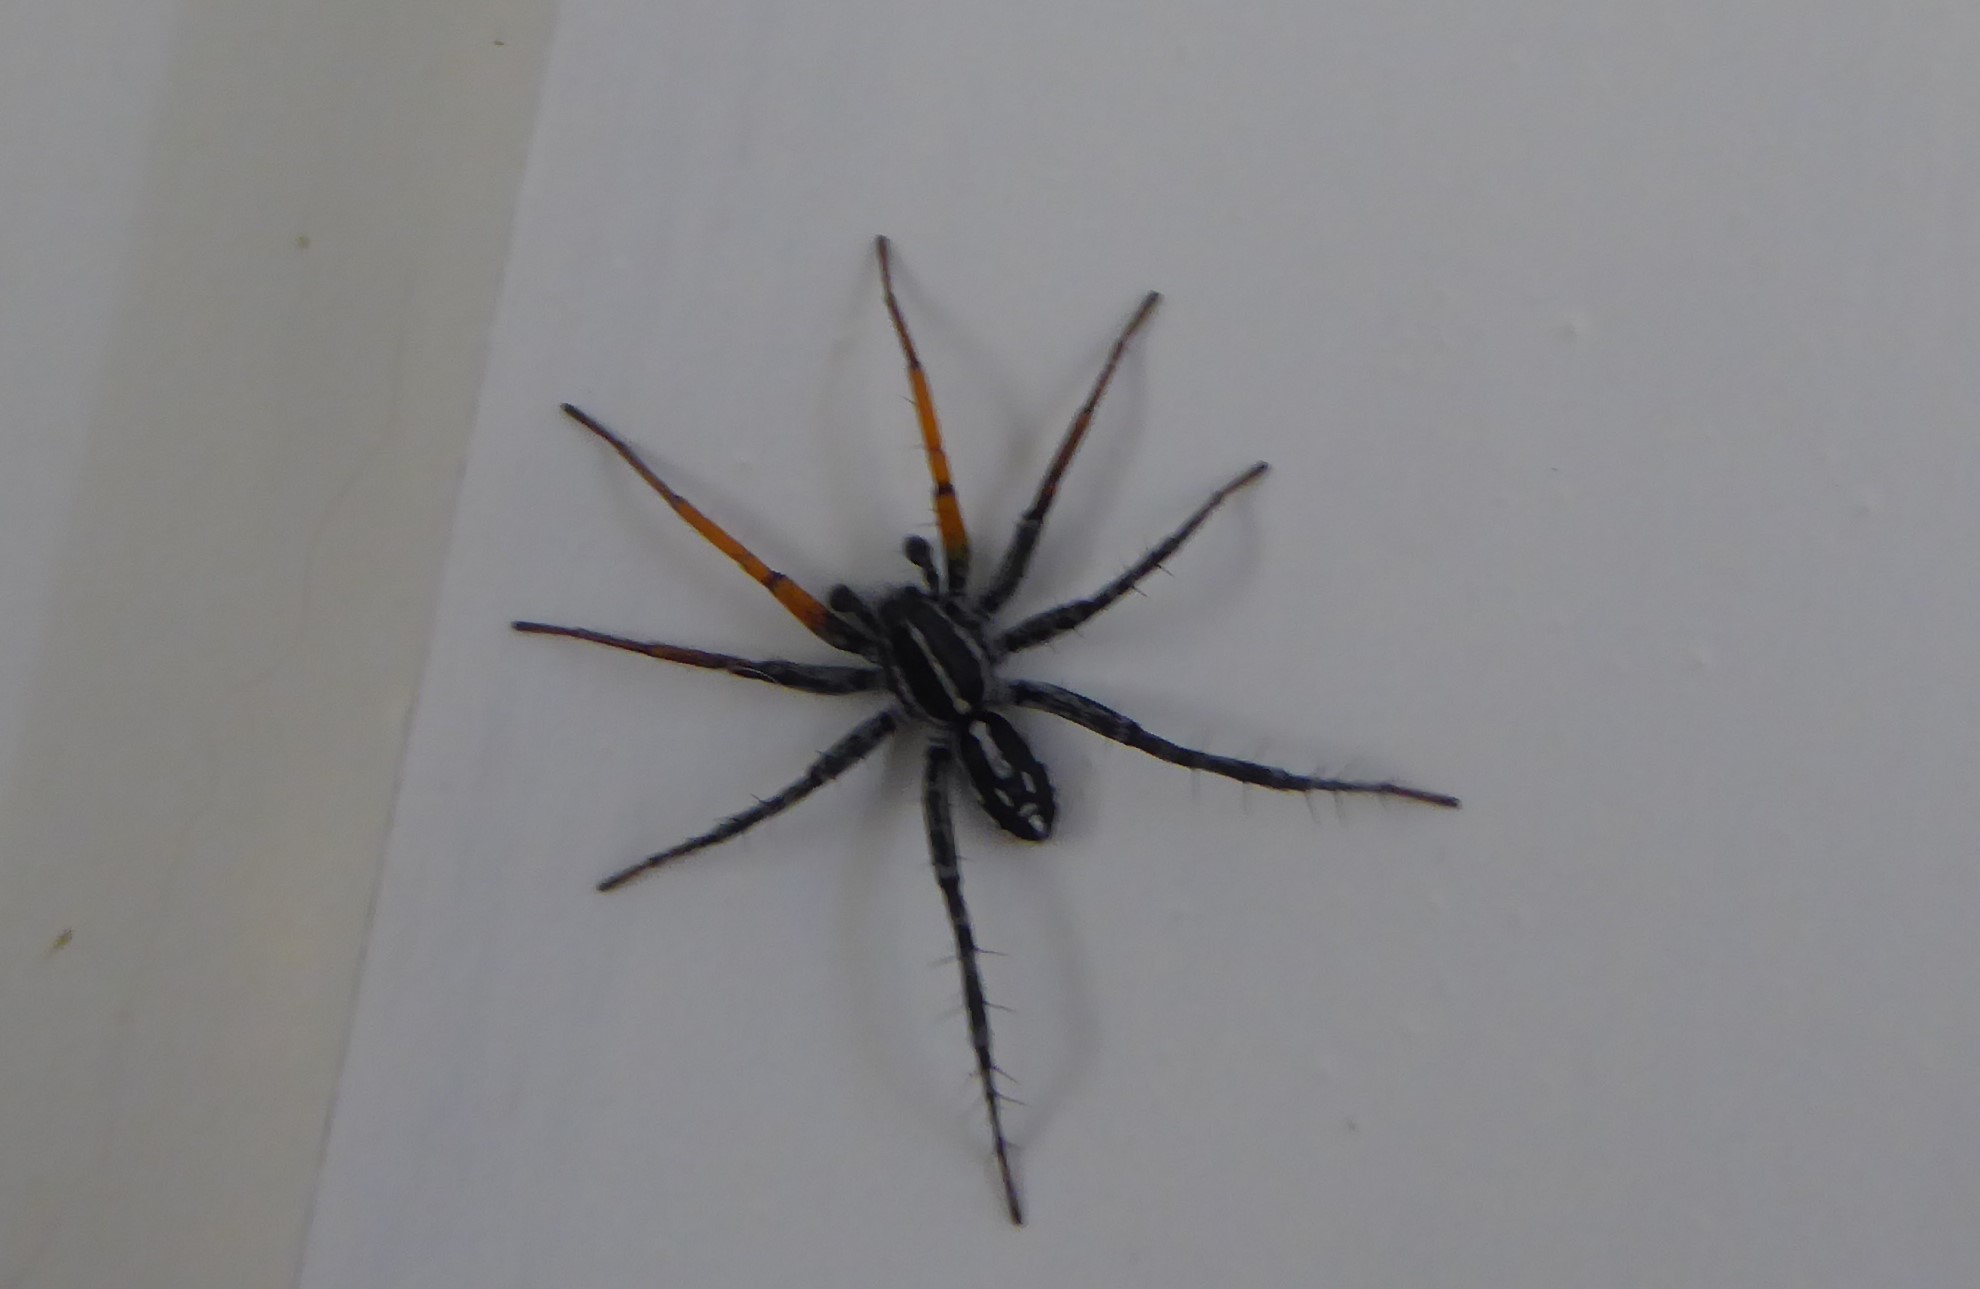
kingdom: Animalia
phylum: Arthropoda
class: Arachnida
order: Araneae
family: Corinnidae
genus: Nyssus
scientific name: Nyssus coloripes
